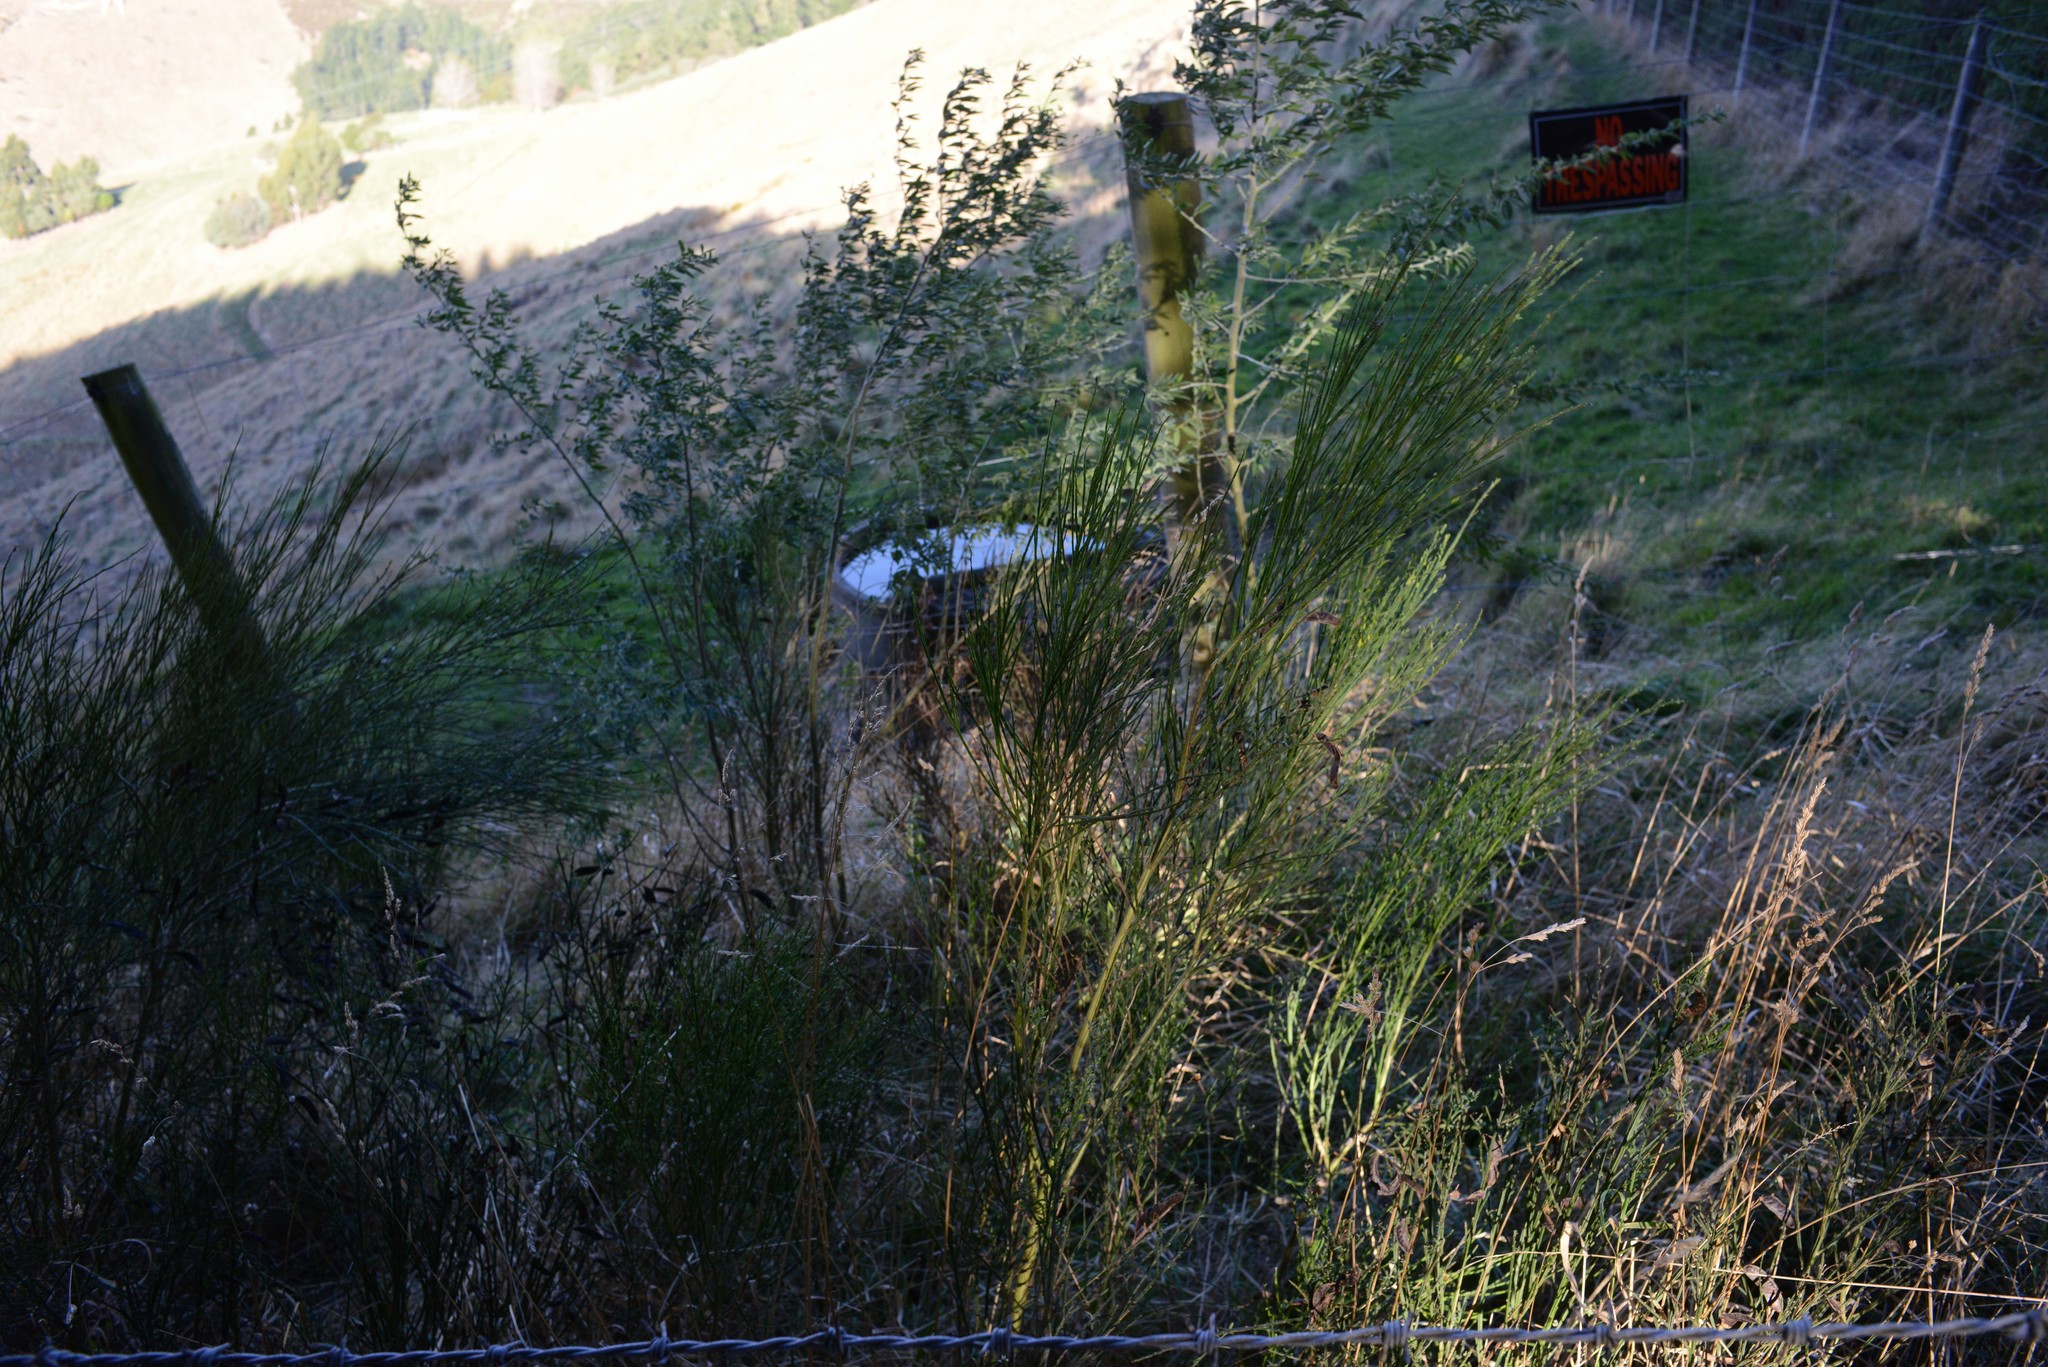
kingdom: Plantae
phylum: Tracheophyta
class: Magnoliopsida
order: Fabales
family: Fabaceae
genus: Cytisus
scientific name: Cytisus scoparius
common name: Scotch broom
